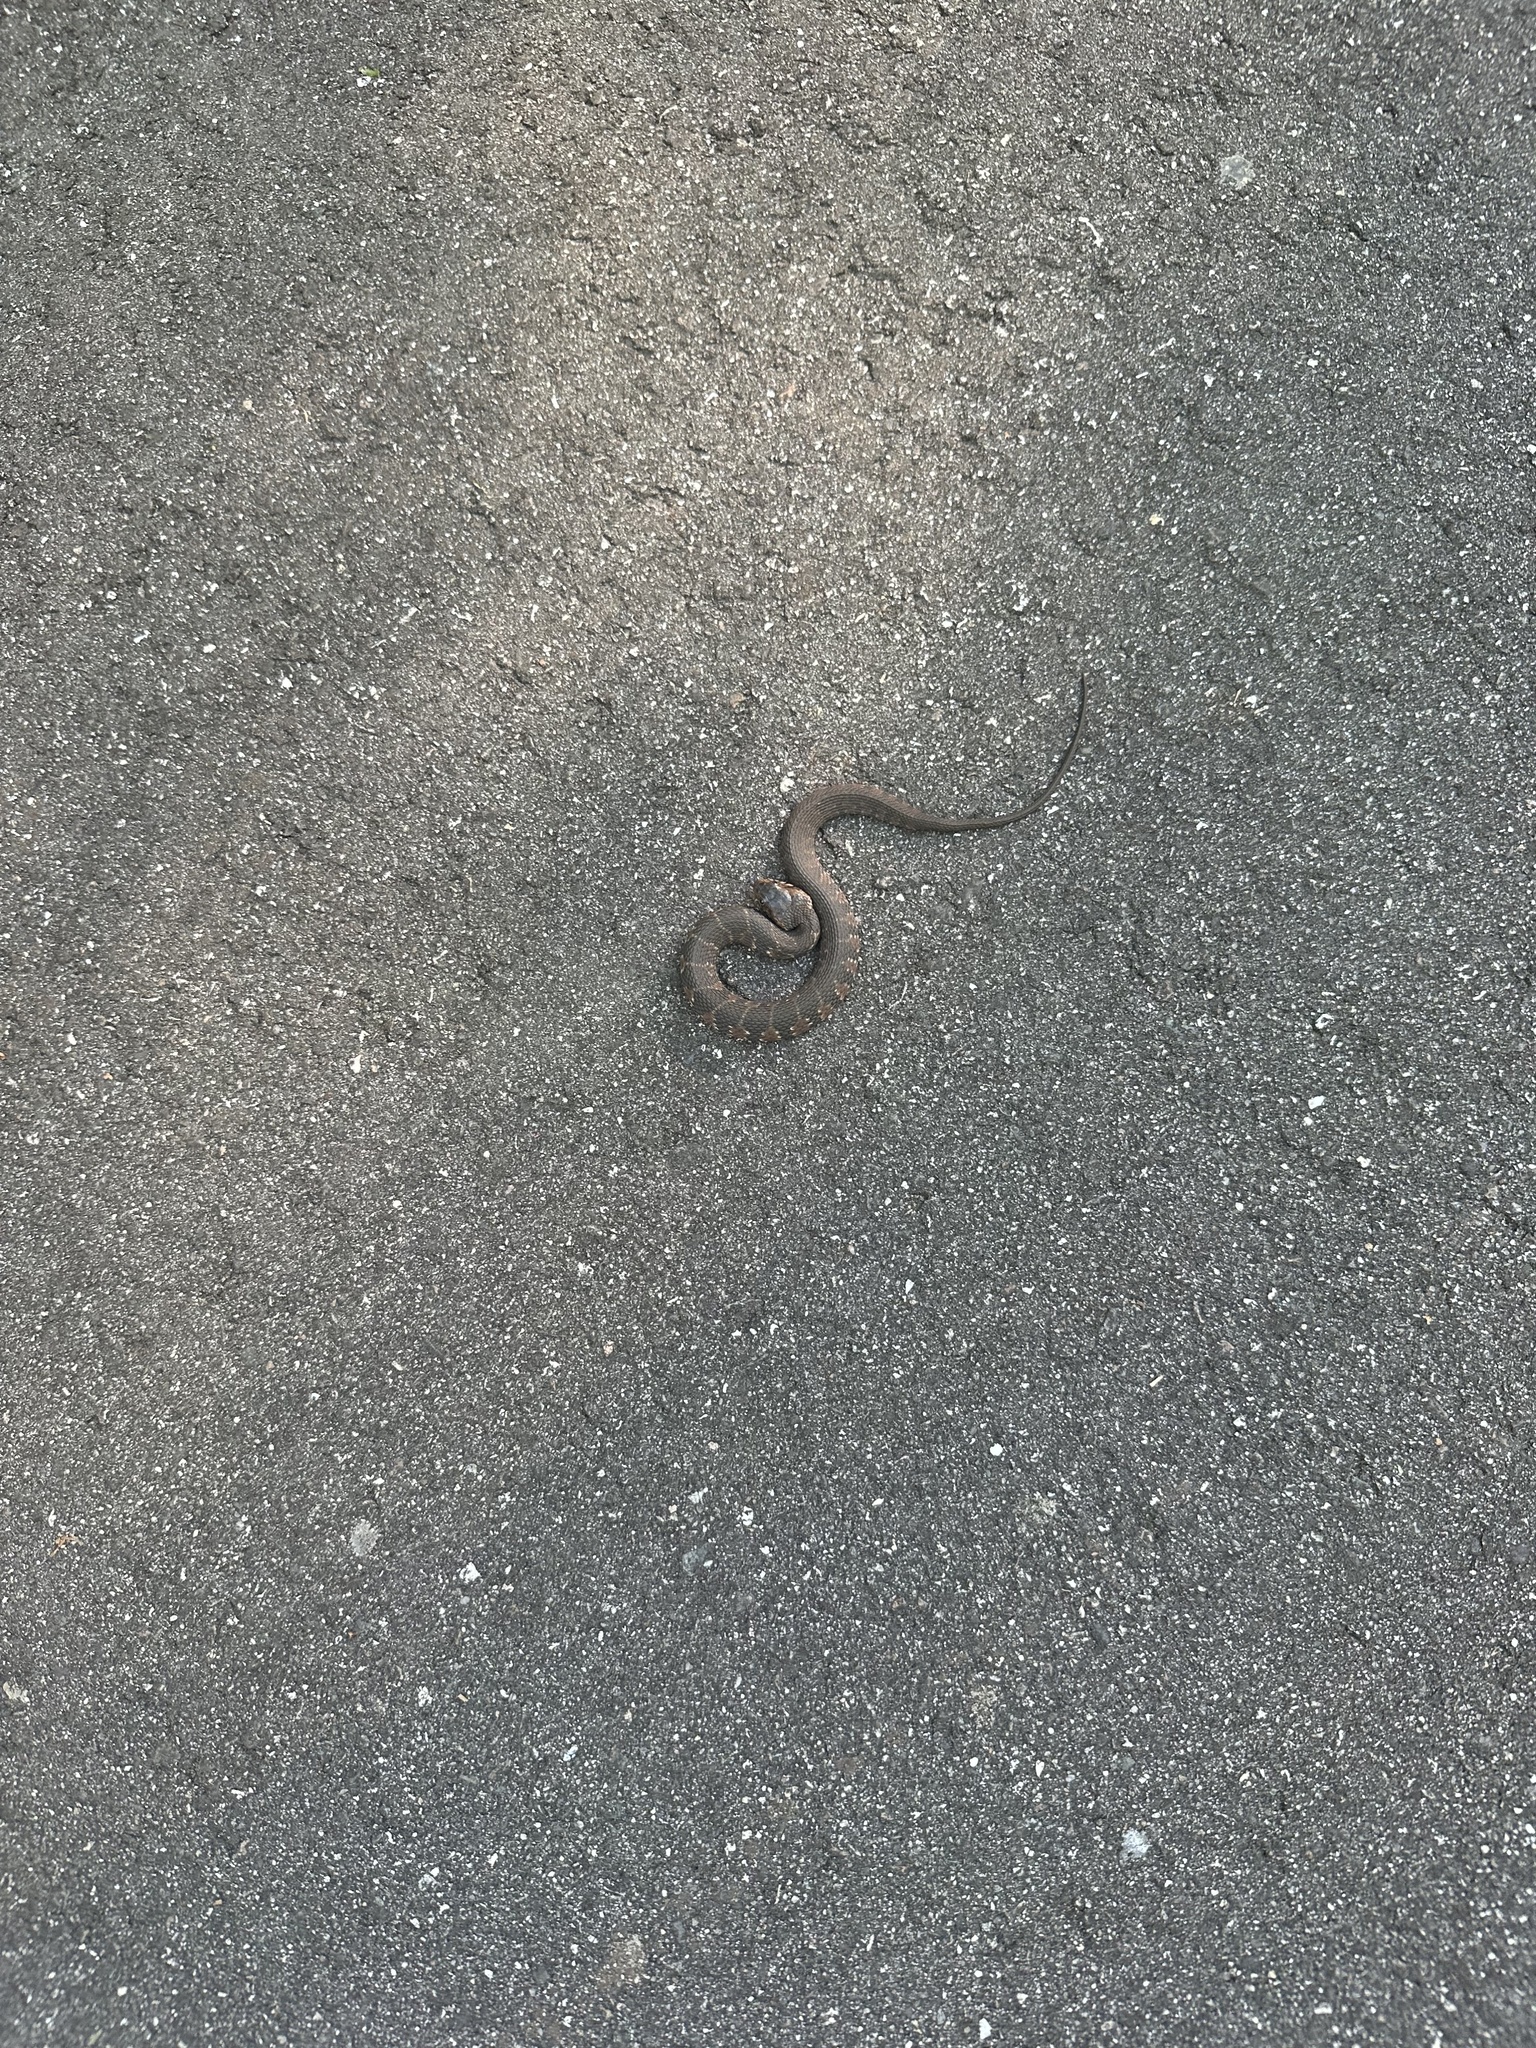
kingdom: Animalia
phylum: Chordata
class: Squamata
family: Colubridae
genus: Nerodia
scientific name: Nerodia fasciata
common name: Southern water snake
